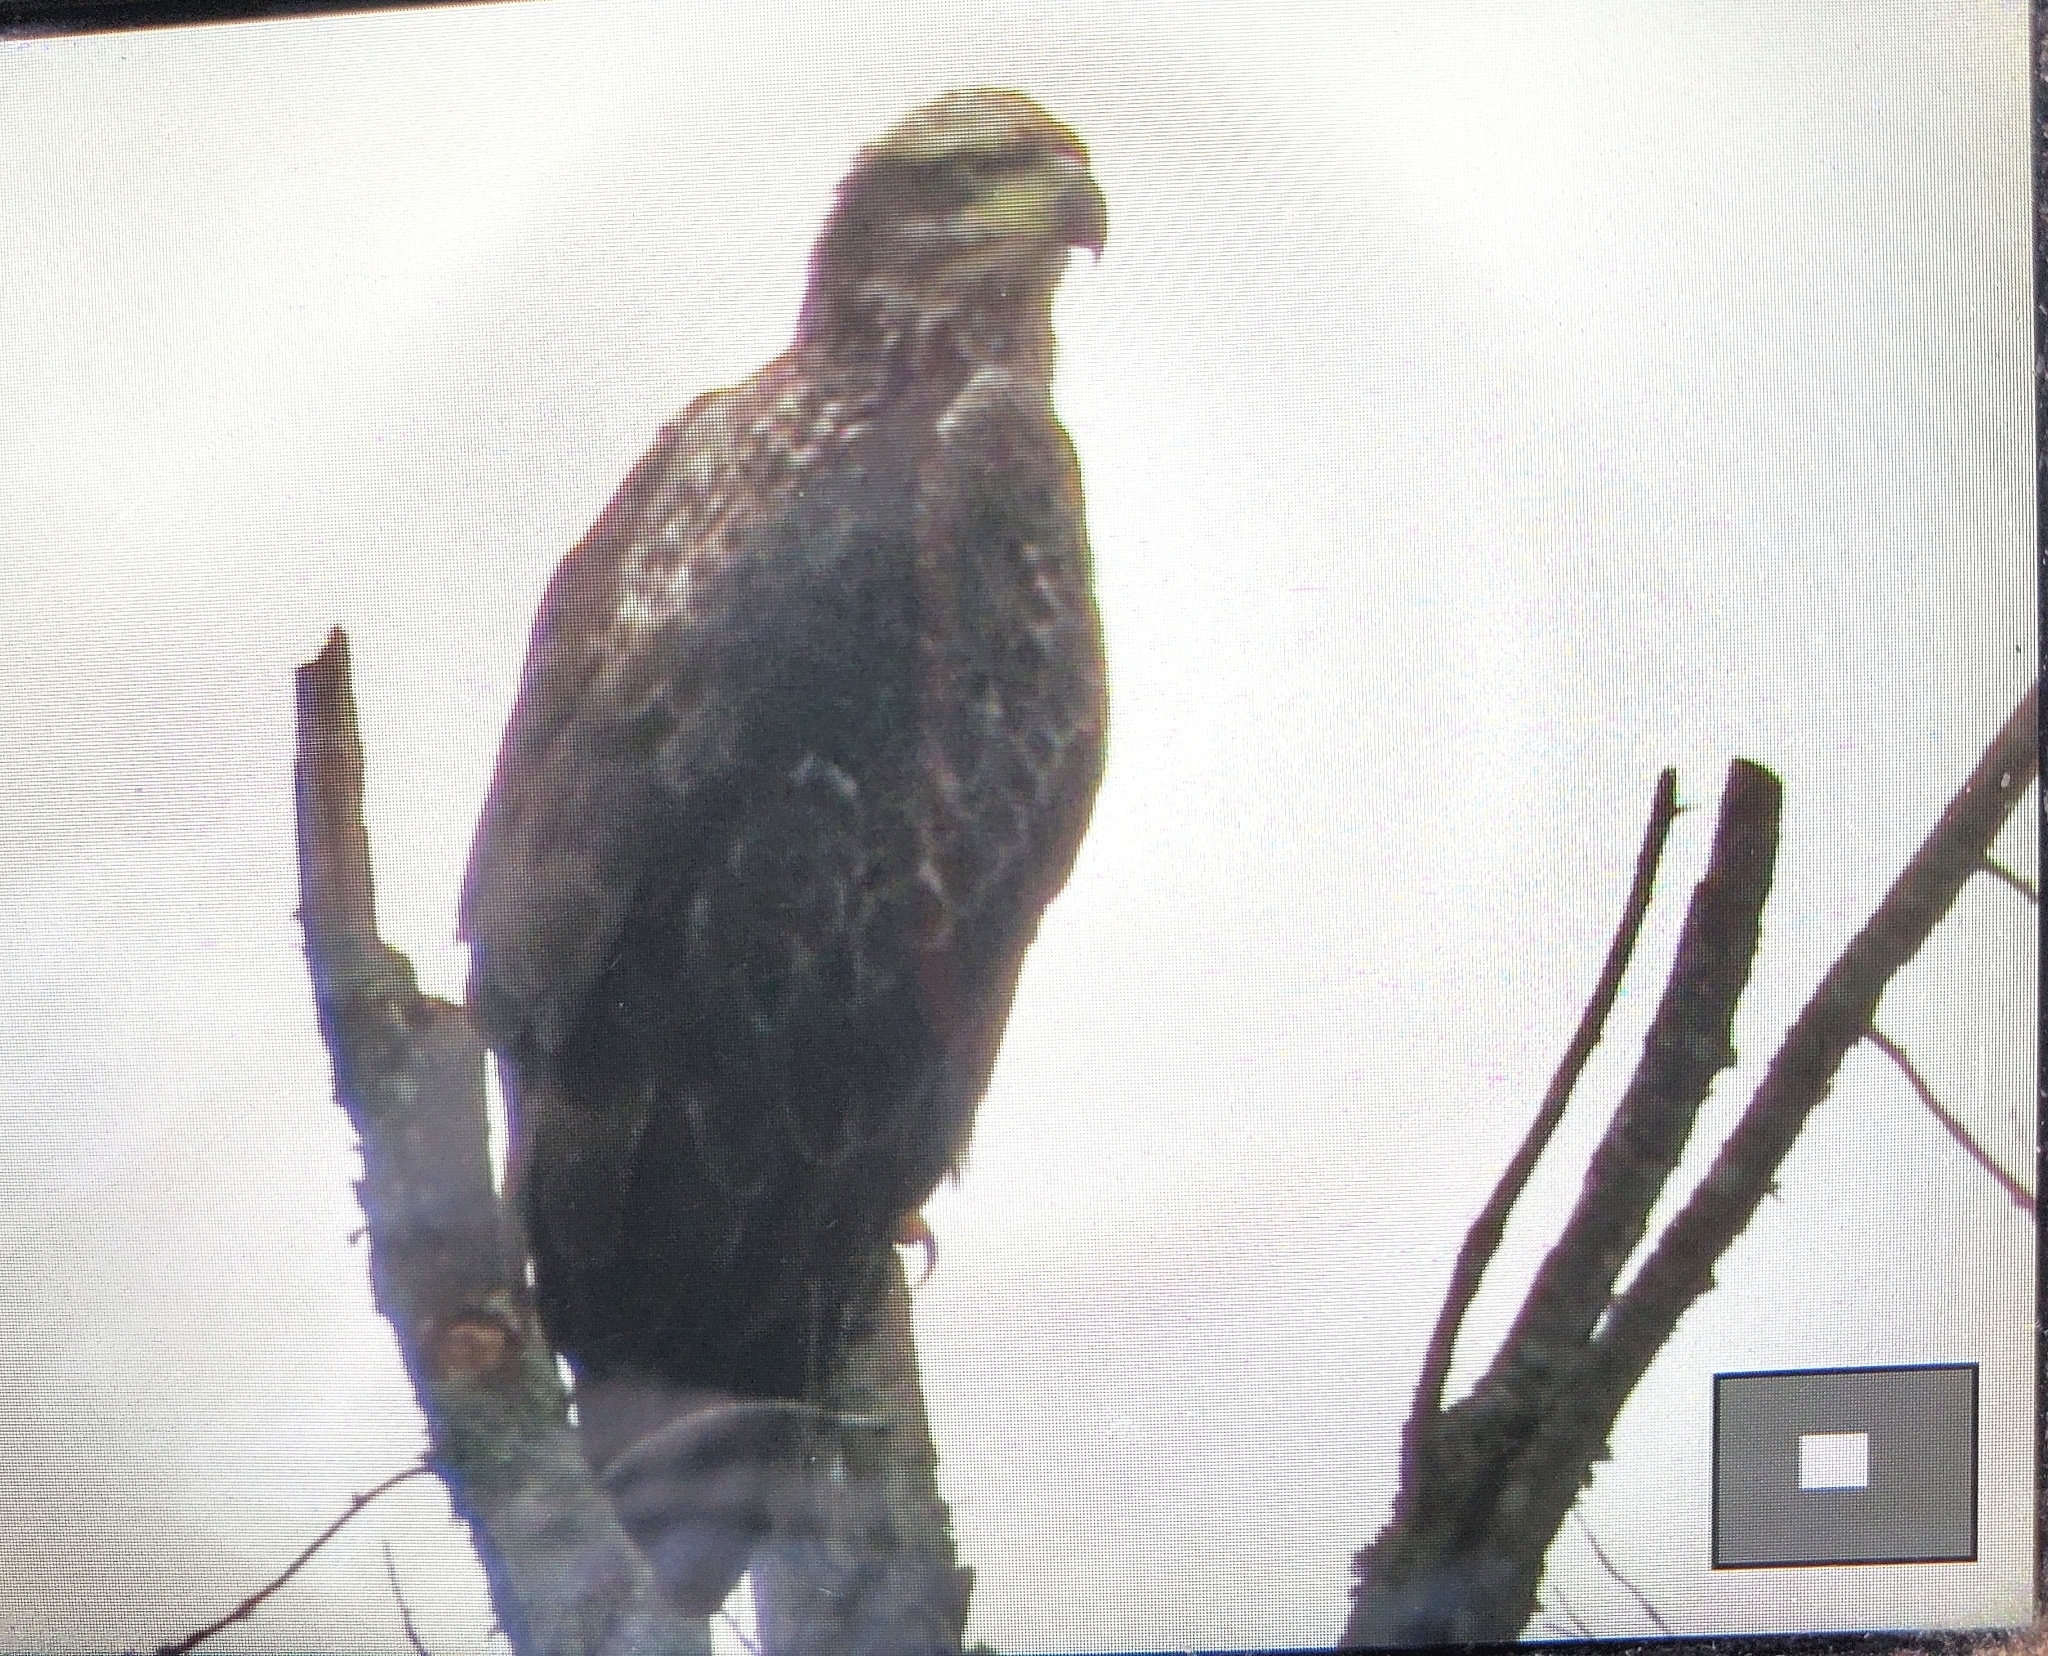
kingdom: Animalia
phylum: Chordata
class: Aves
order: Accipitriformes
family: Accipitridae
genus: Haliaeetus
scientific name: Haliaeetus leucocephalus
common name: Bald eagle
